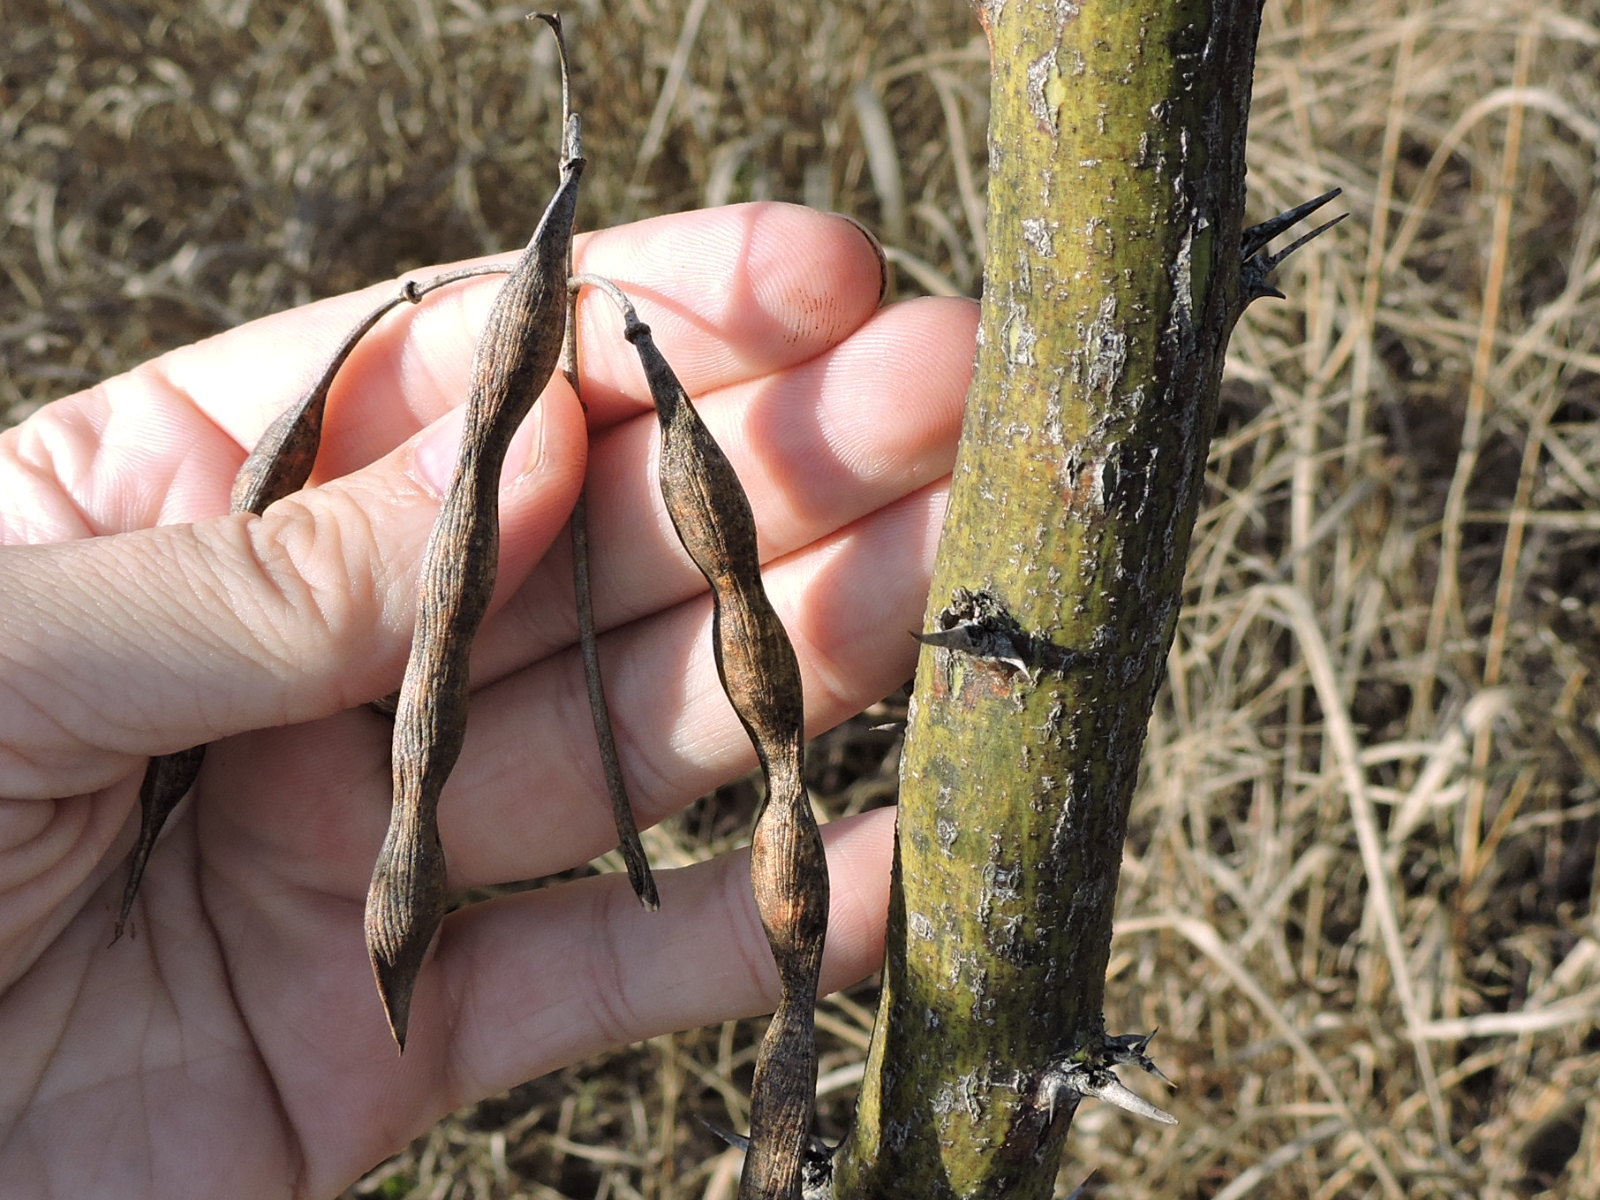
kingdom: Plantae
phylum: Tracheophyta
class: Magnoliopsida
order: Fabales
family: Fabaceae
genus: Parkinsonia
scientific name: Parkinsonia aculeata
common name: Jerusalem thorn
